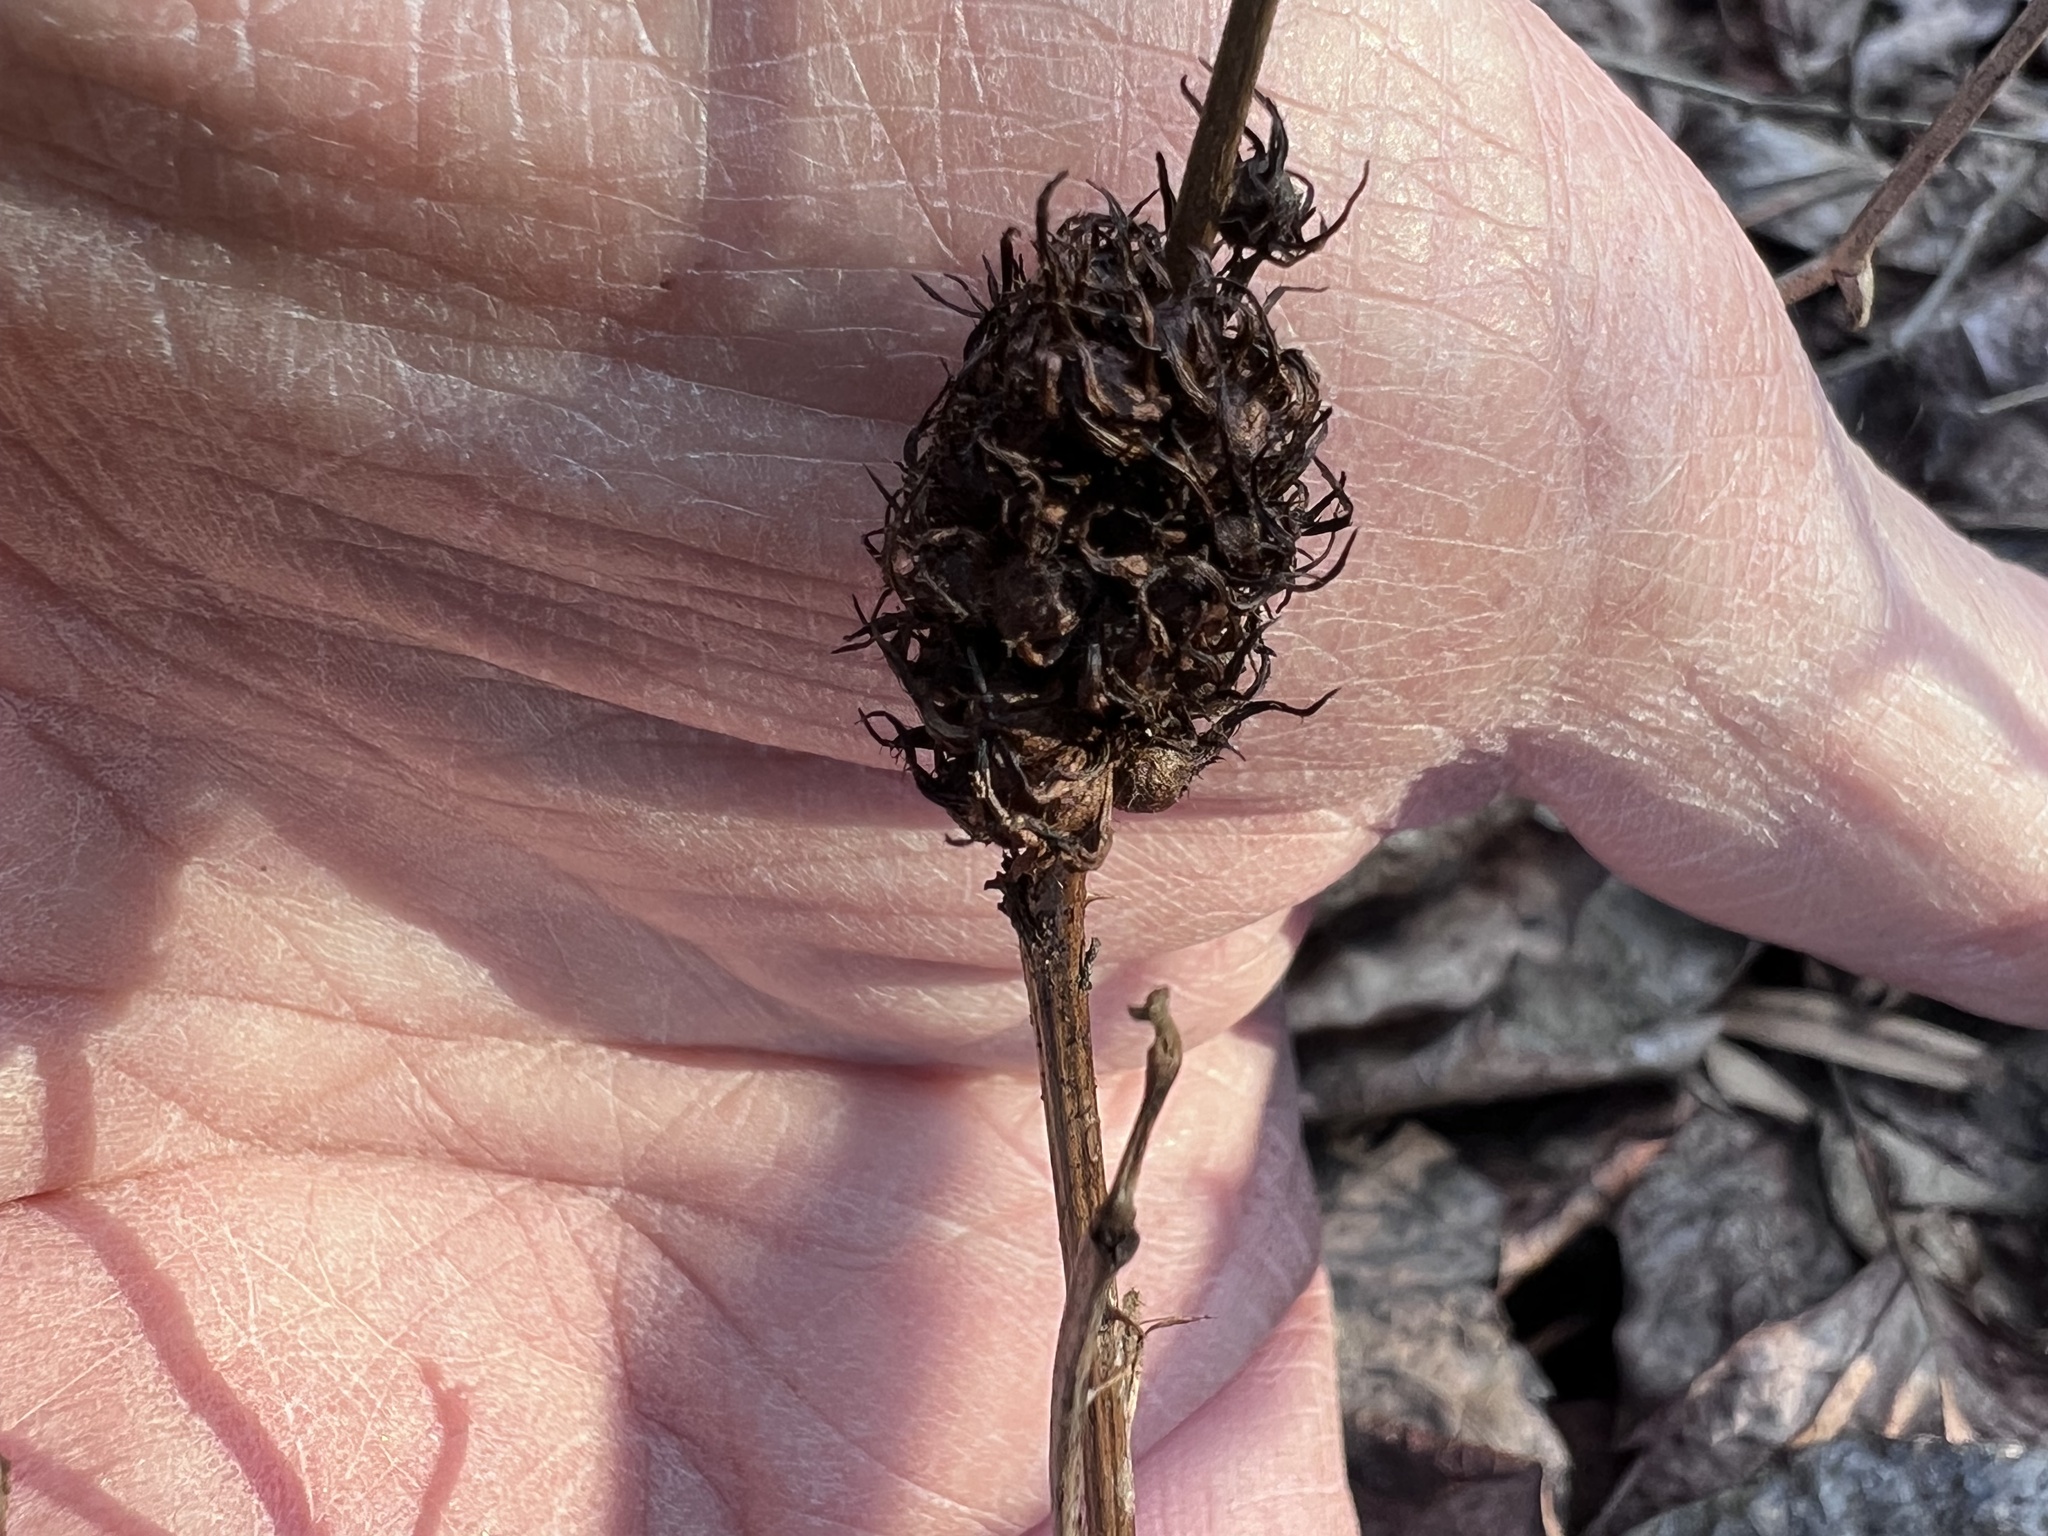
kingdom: Animalia
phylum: Arthropoda
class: Insecta
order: Hymenoptera
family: Cynipidae
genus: Diastrophus
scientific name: Diastrophus
